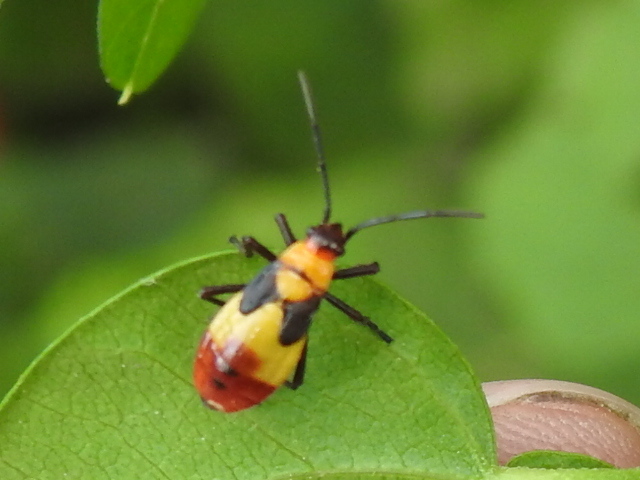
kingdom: Animalia
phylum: Arthropoda
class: Insecta
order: Hemiptera
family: Lygaeidae
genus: Oncopeltus
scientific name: Oncopeltus sexmaculatus
